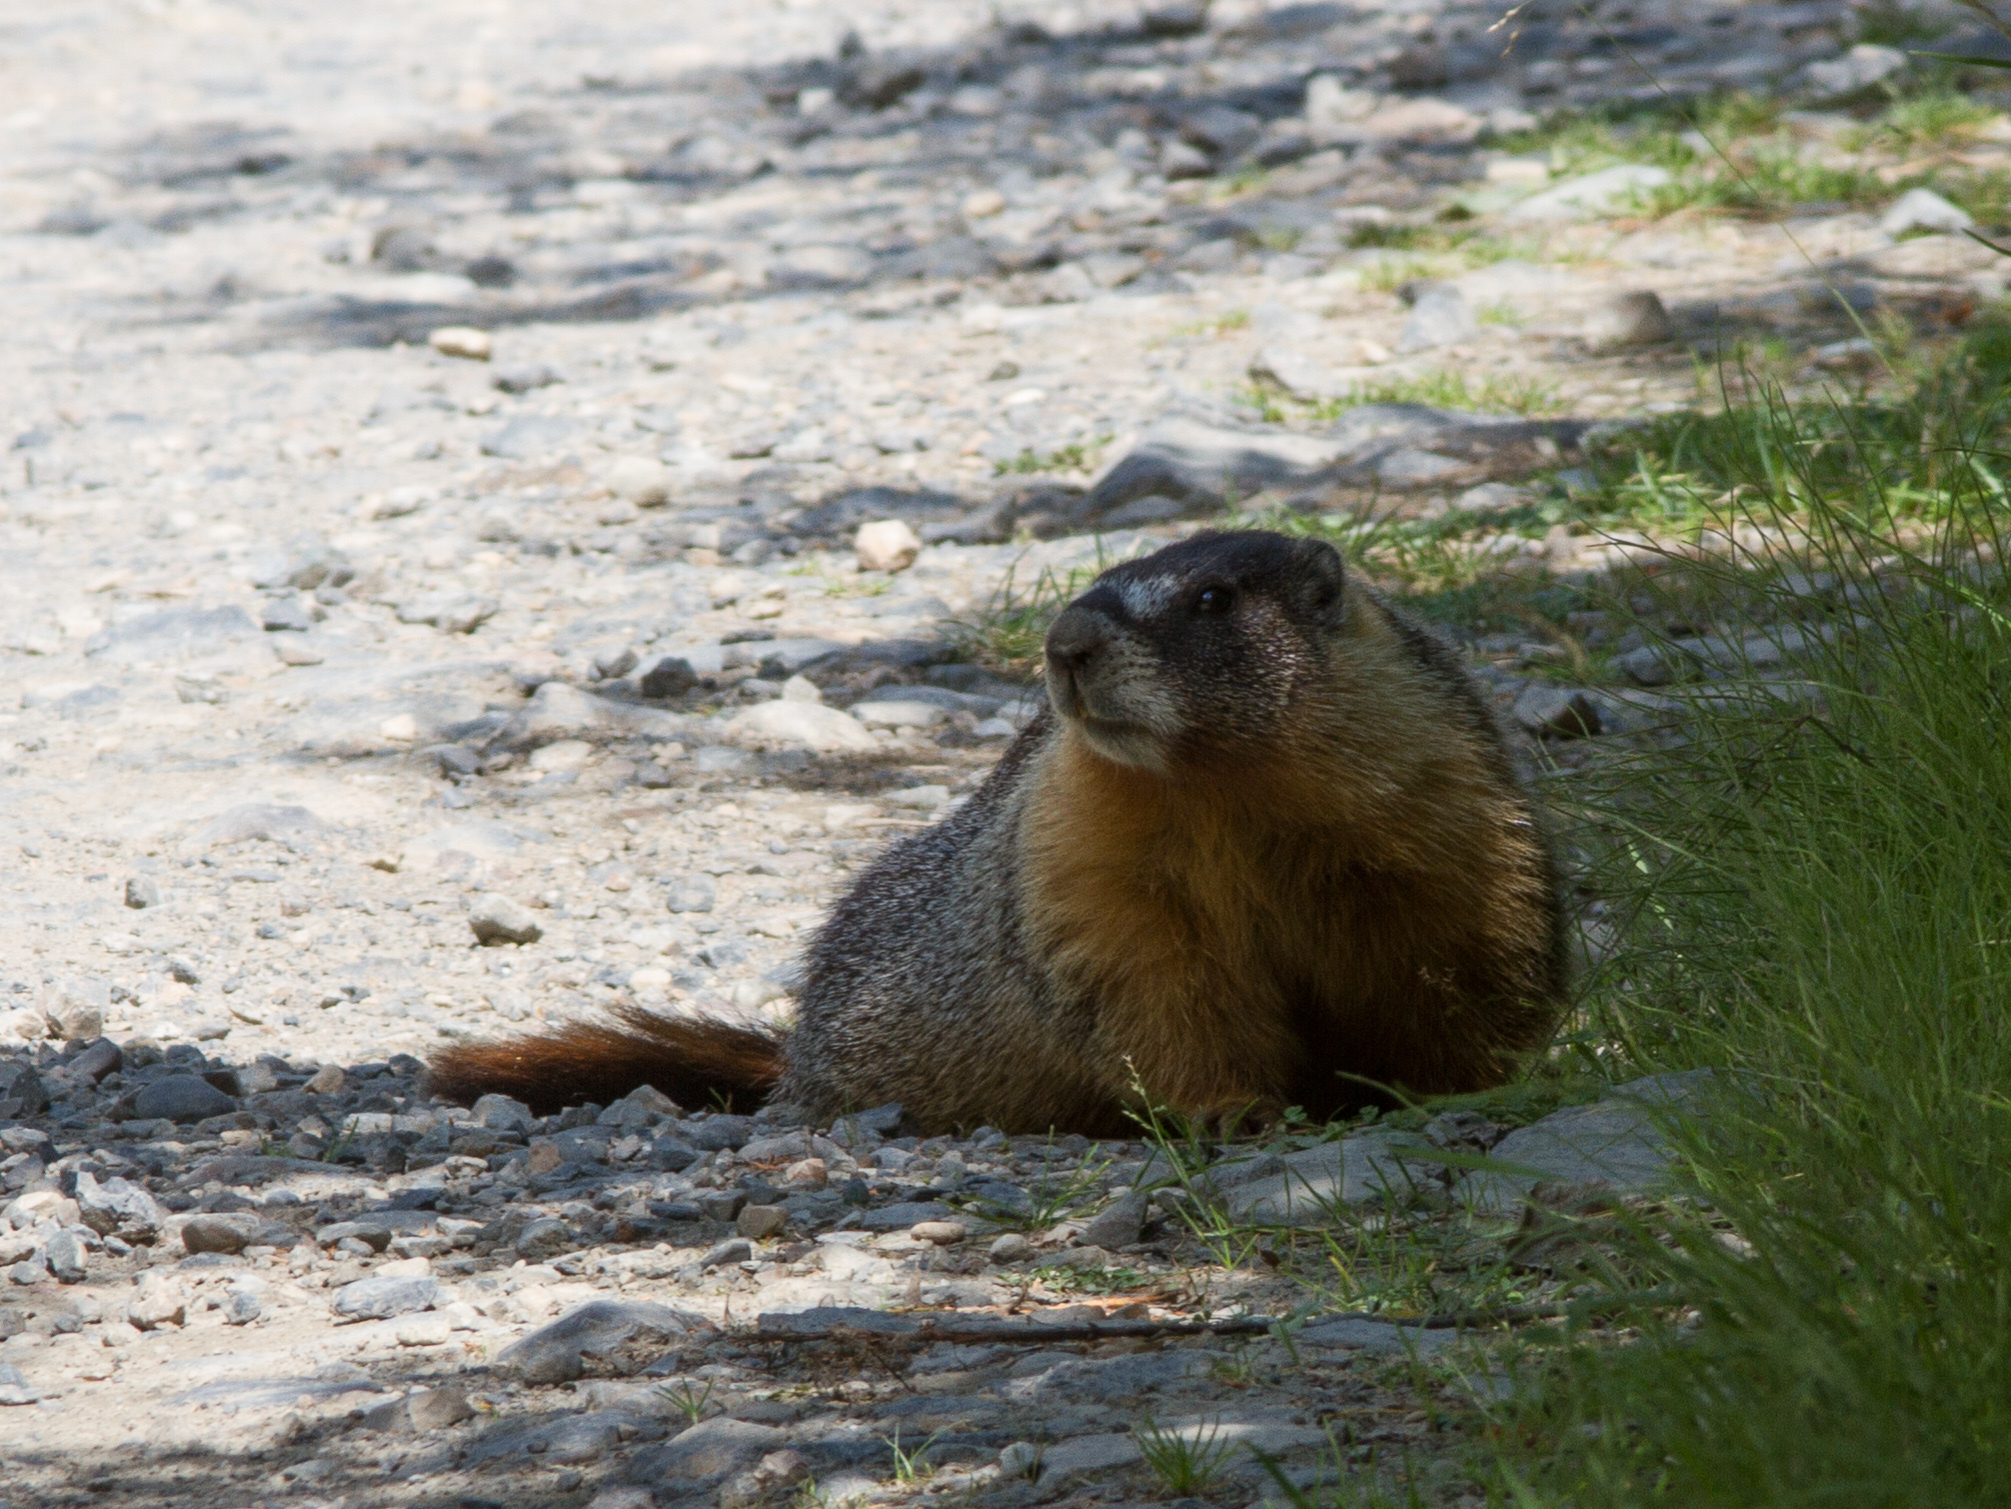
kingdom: Animalia
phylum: Chordata
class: Mammalia
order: Rodentia
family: Sciuridae
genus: Marmota
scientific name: Marmota flaviventris
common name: Yellow-bellied marmot
